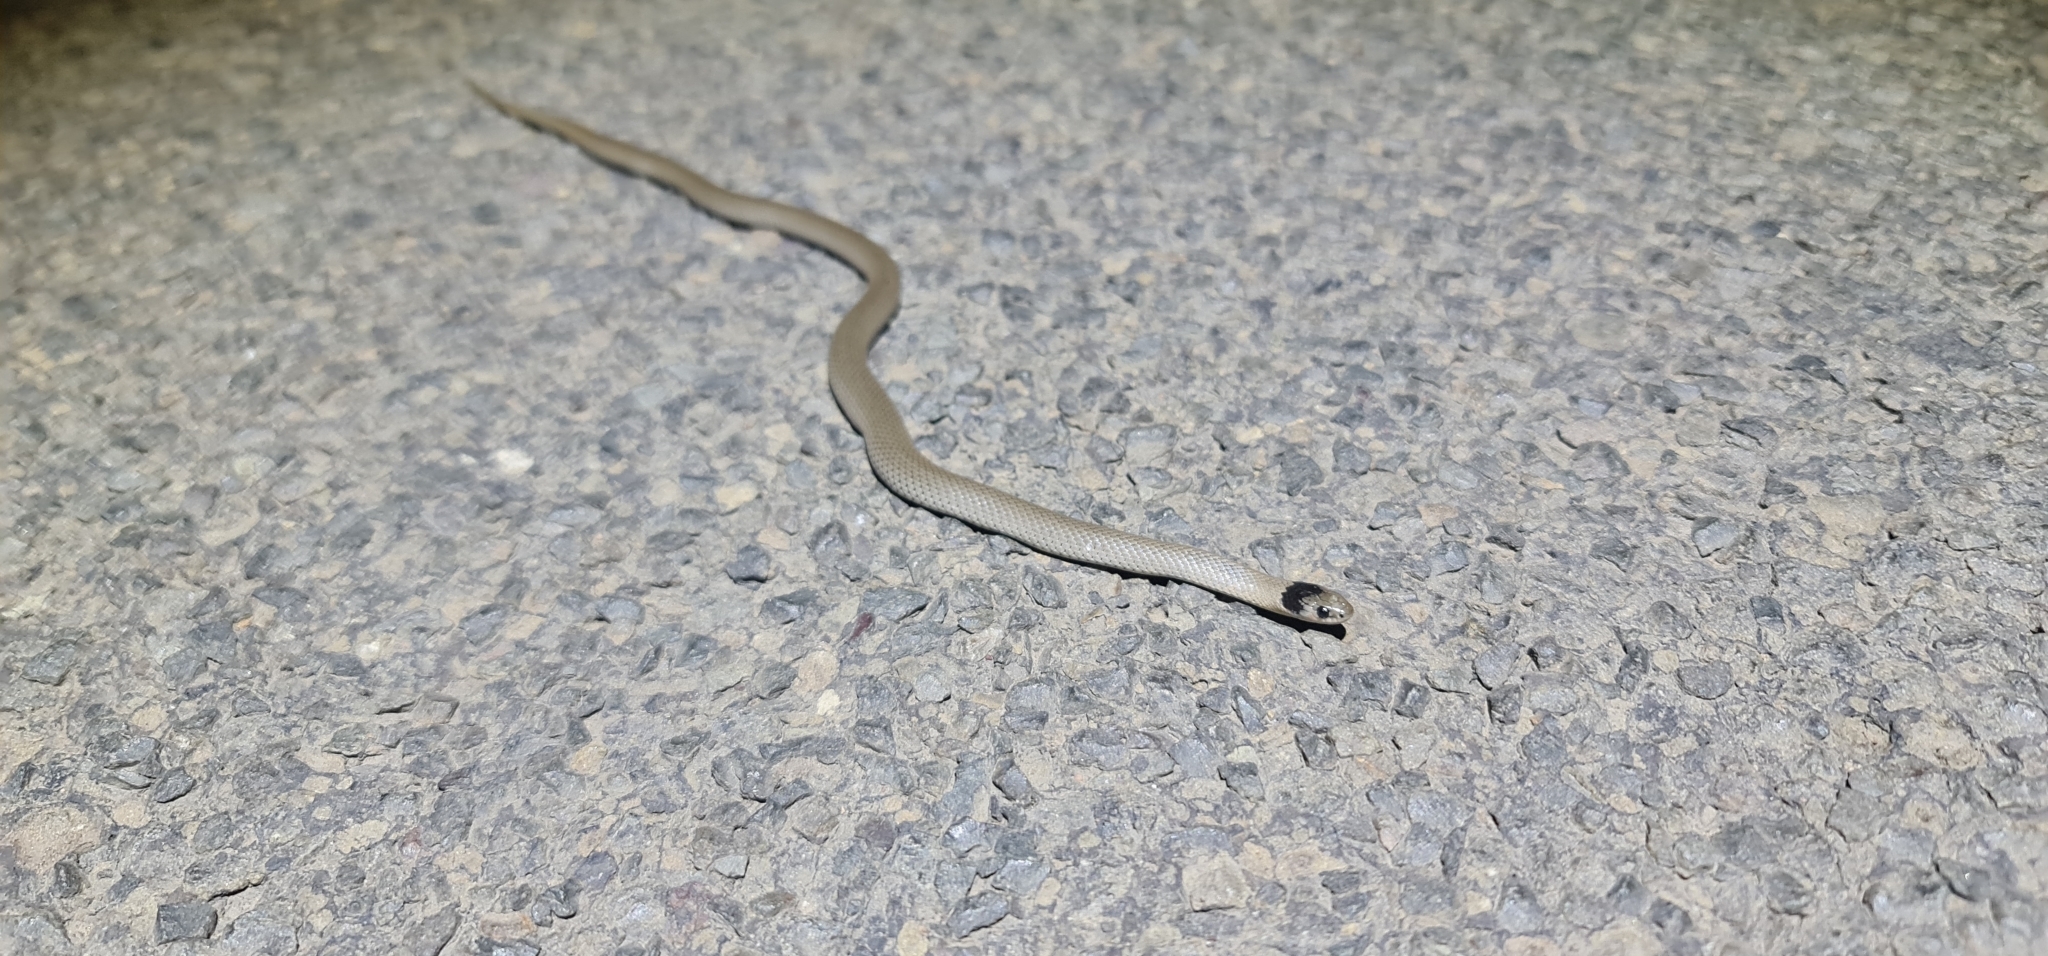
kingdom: Animalia
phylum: Chordata
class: Squamata
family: Elapidae
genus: Hemiaspis
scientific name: Hemiaspis damelii
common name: Grey snake
